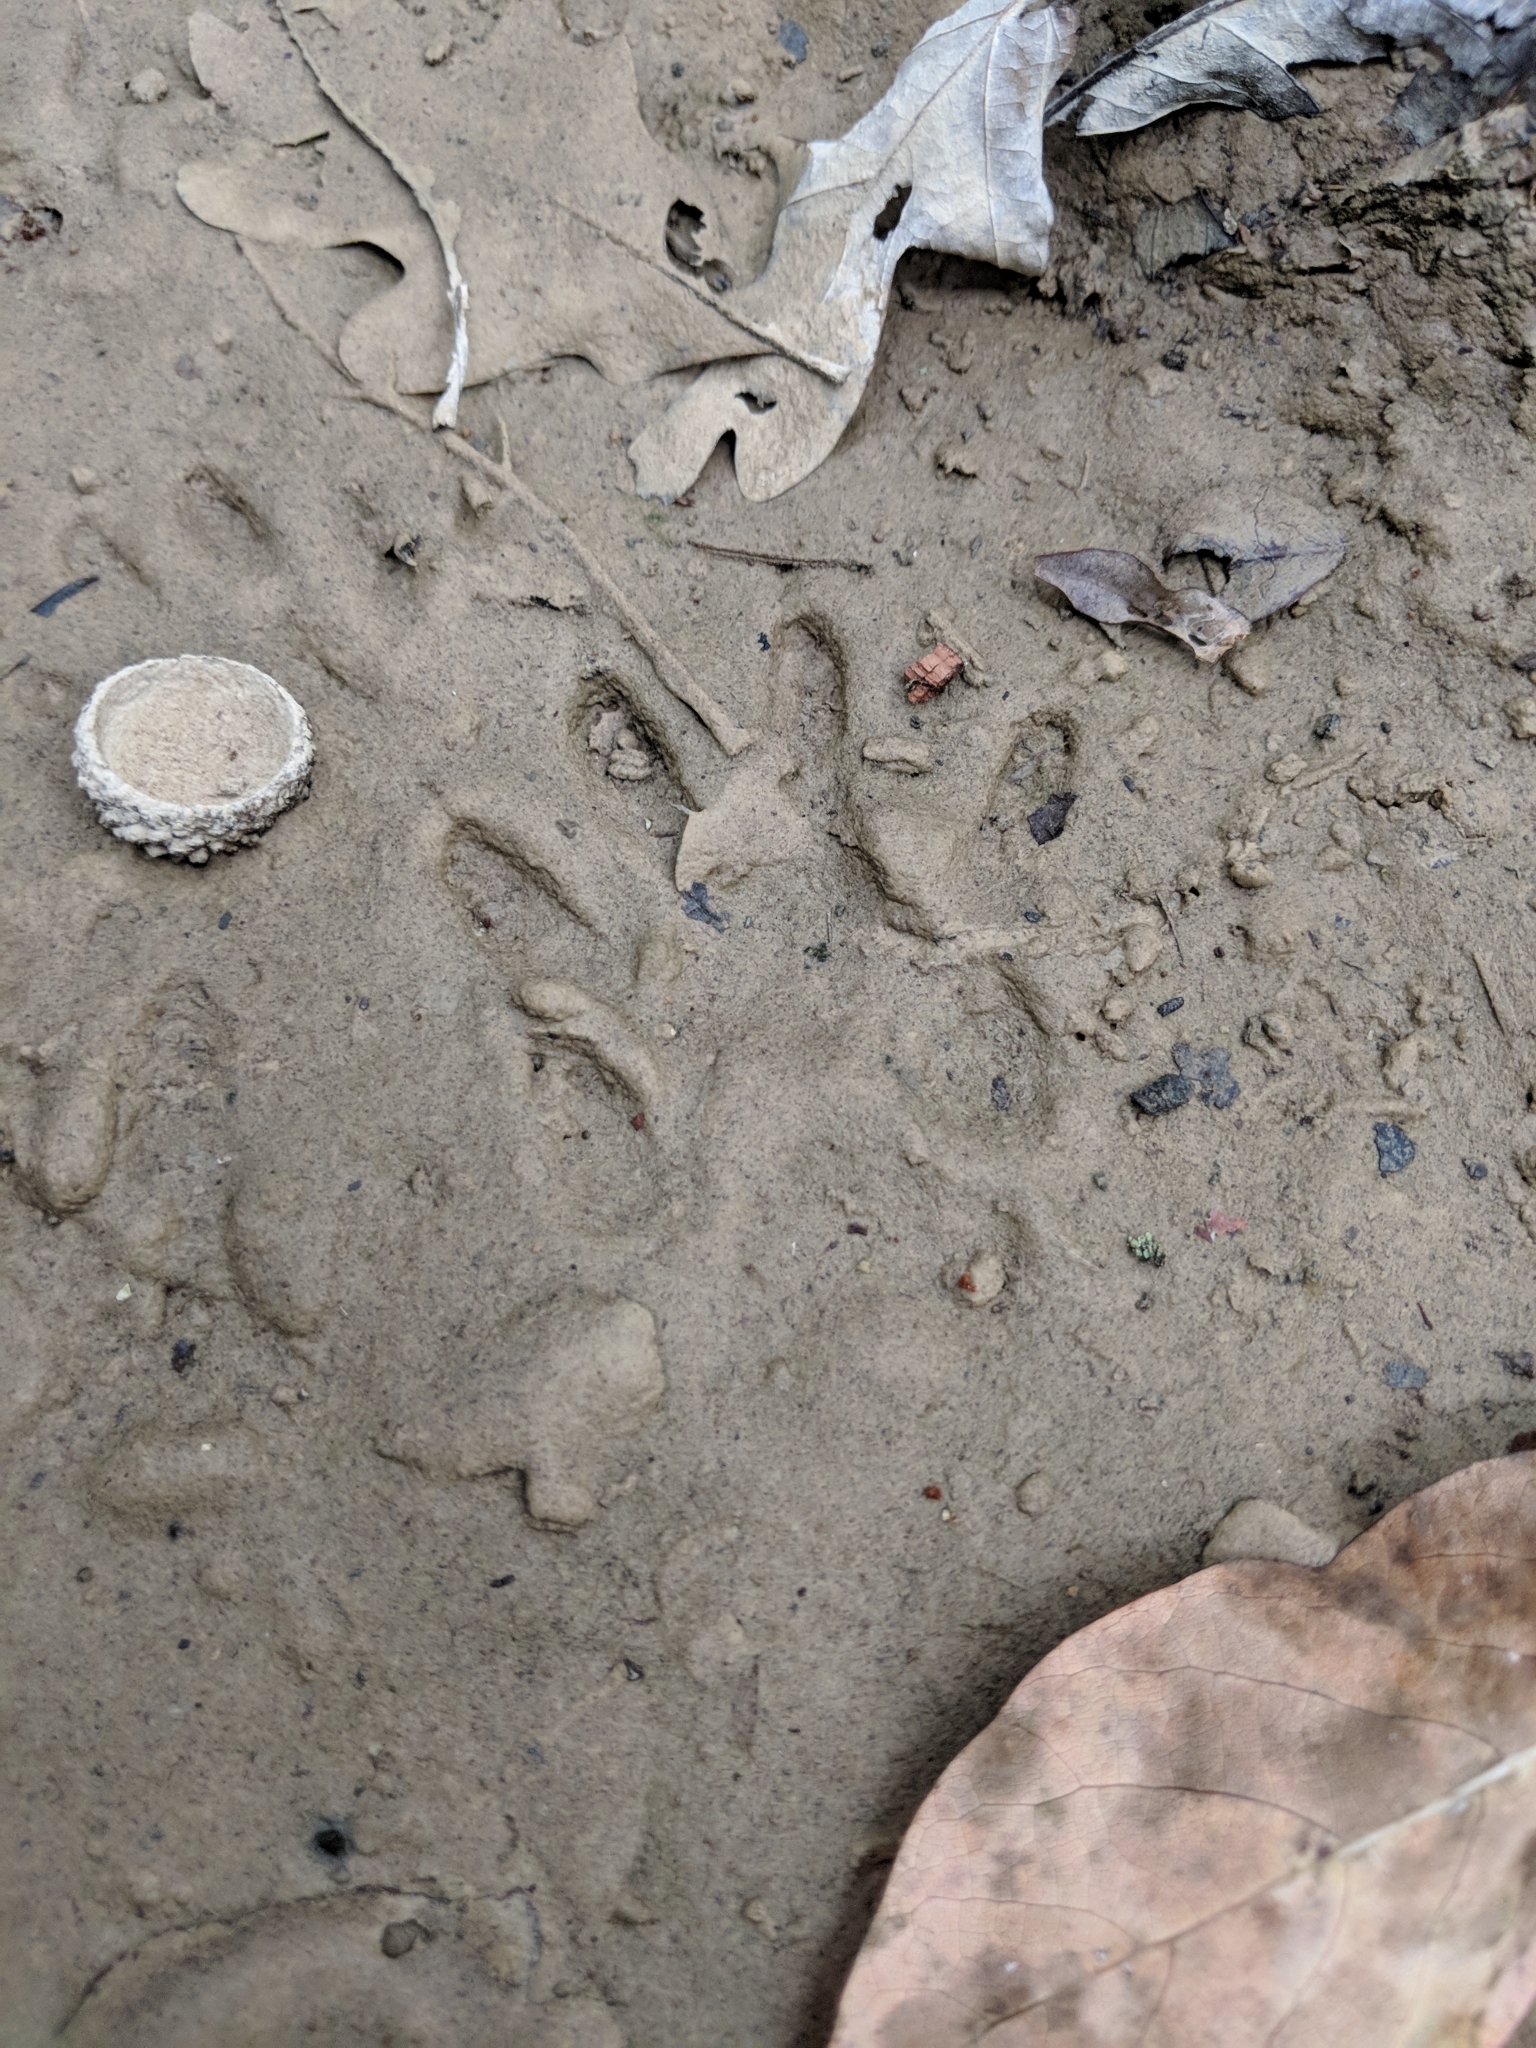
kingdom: Animalia
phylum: Chordata
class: Mammalia
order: Carnivora
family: Procyonidae
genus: Procyon
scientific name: Procyon lotor
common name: Raccoon
